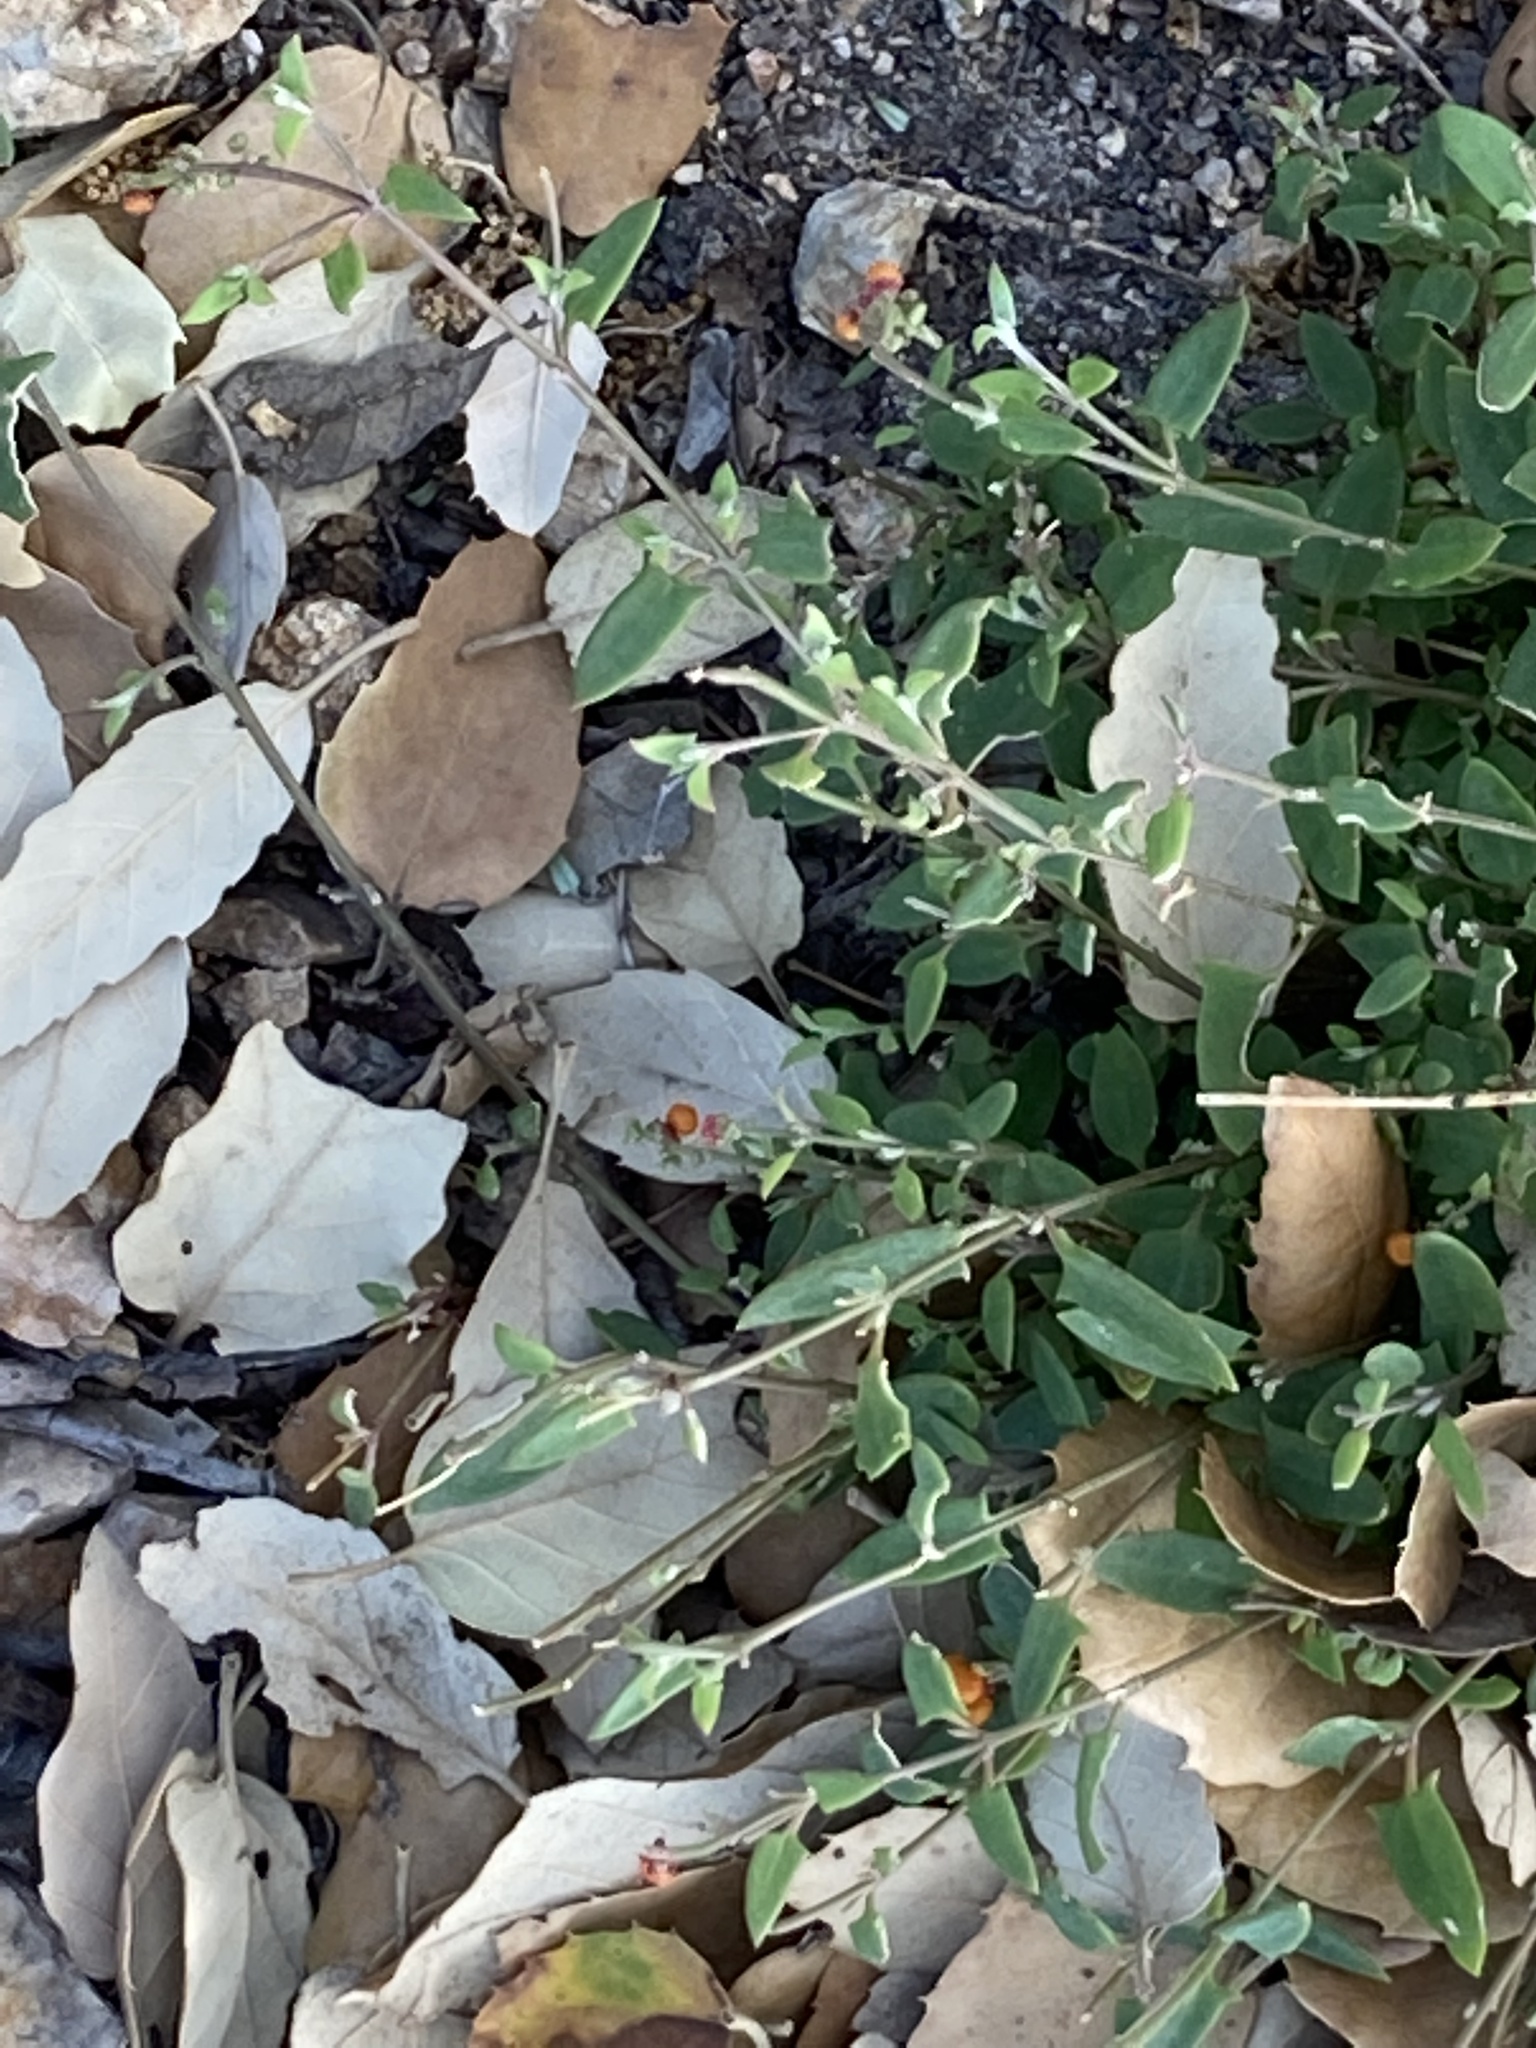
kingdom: Plantae
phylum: Tracheophyta
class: Magnoliopsida
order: Caryophyllales
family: Amaranthaceae
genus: Chenopodium
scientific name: Chenopodium nutans
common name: Climbing-saltbush
